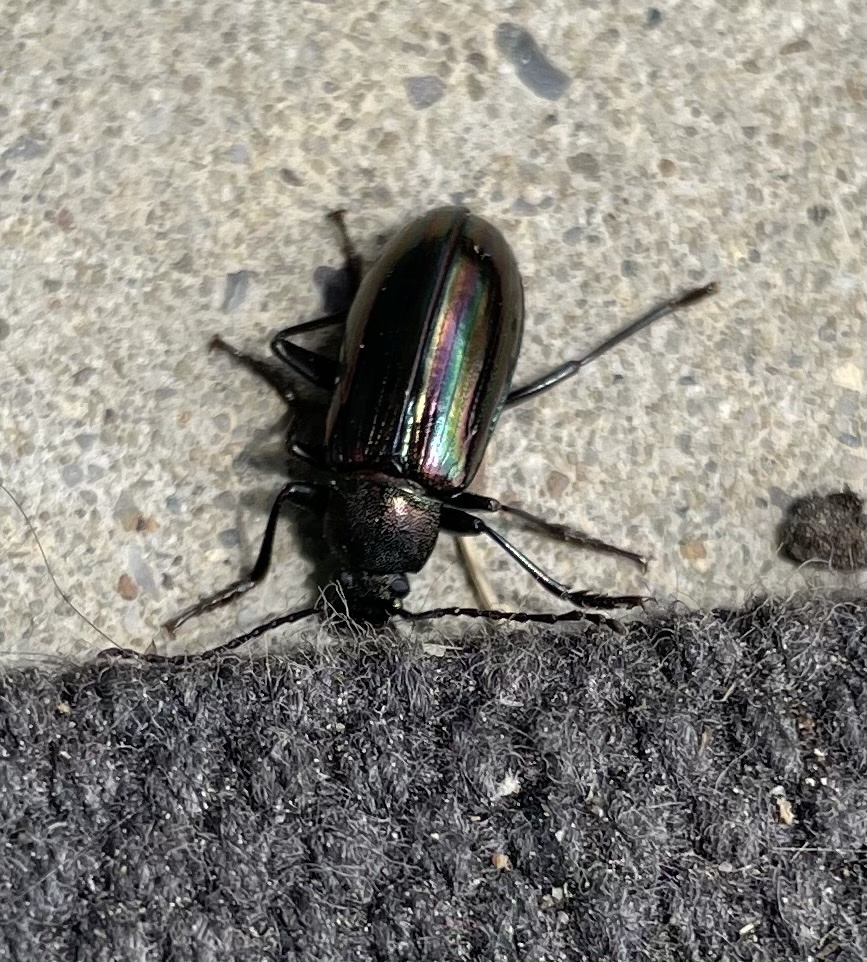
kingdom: Animalia
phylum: Arthropoda
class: Insecta
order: Coleoptera
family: Tenebrionidae
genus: Tarpela
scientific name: Tarpela micans
